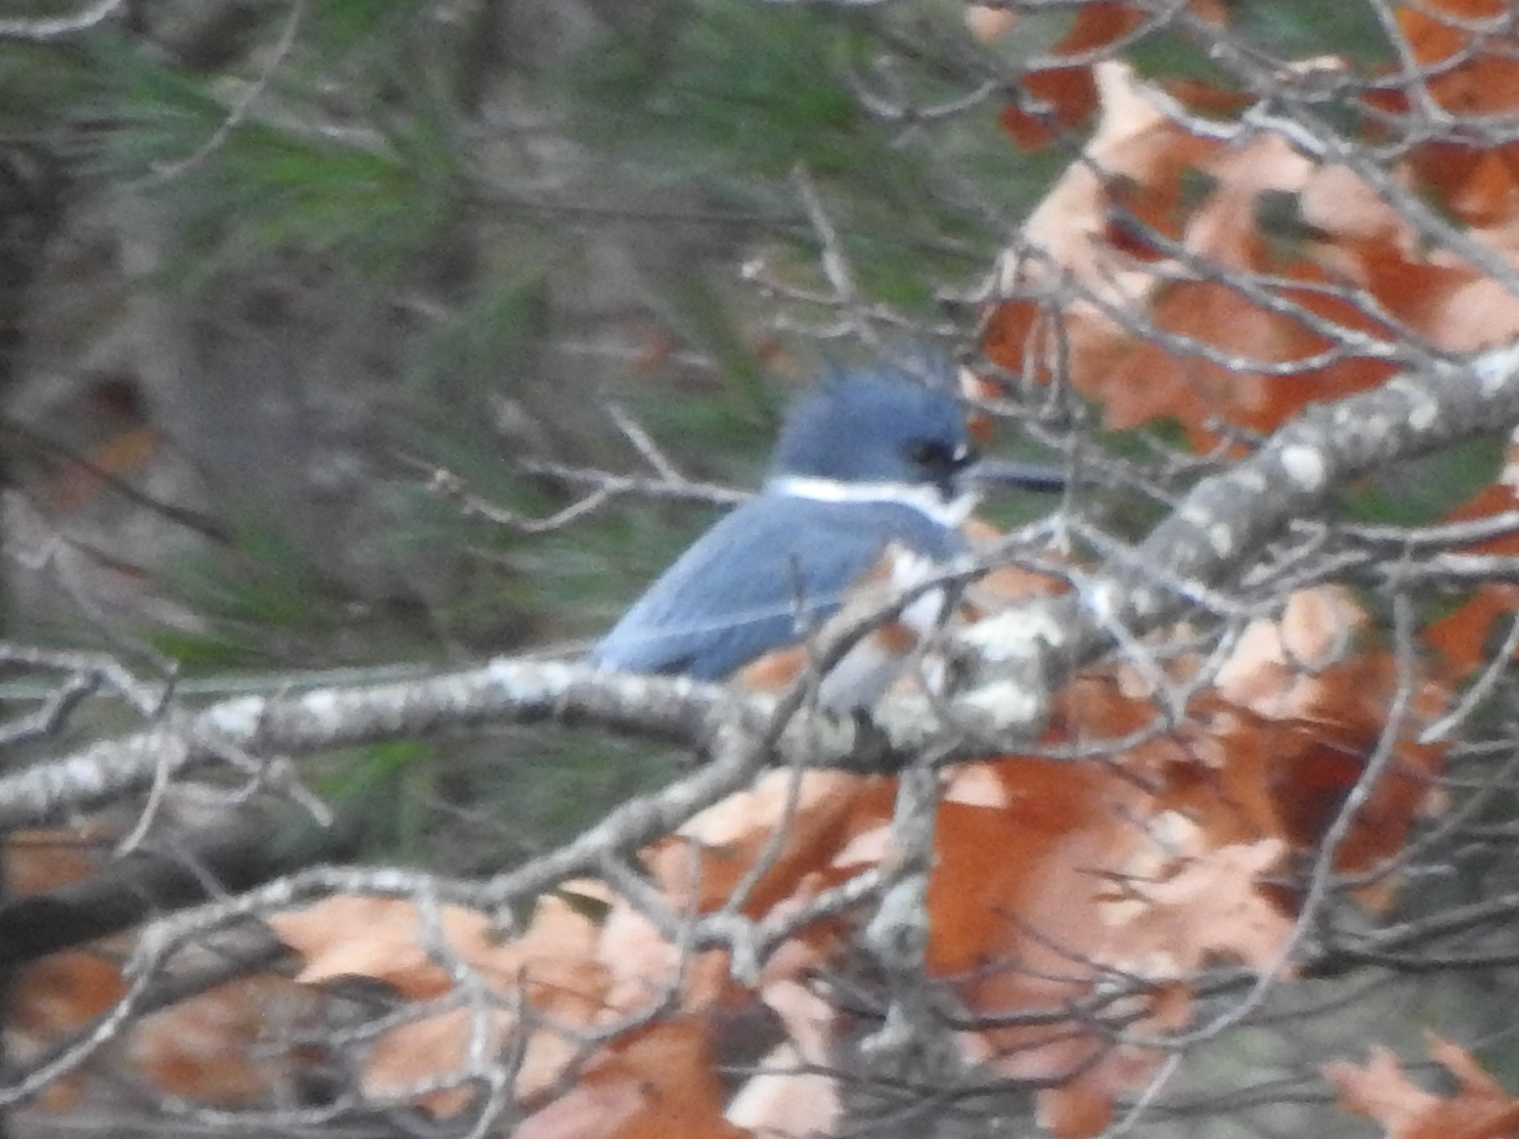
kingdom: Animalia
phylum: Chordata
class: Aves
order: Coraciiformes
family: Alcedinidae
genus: Megaceryle
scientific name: Megaceryle alcyon
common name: Belted kingfisher
